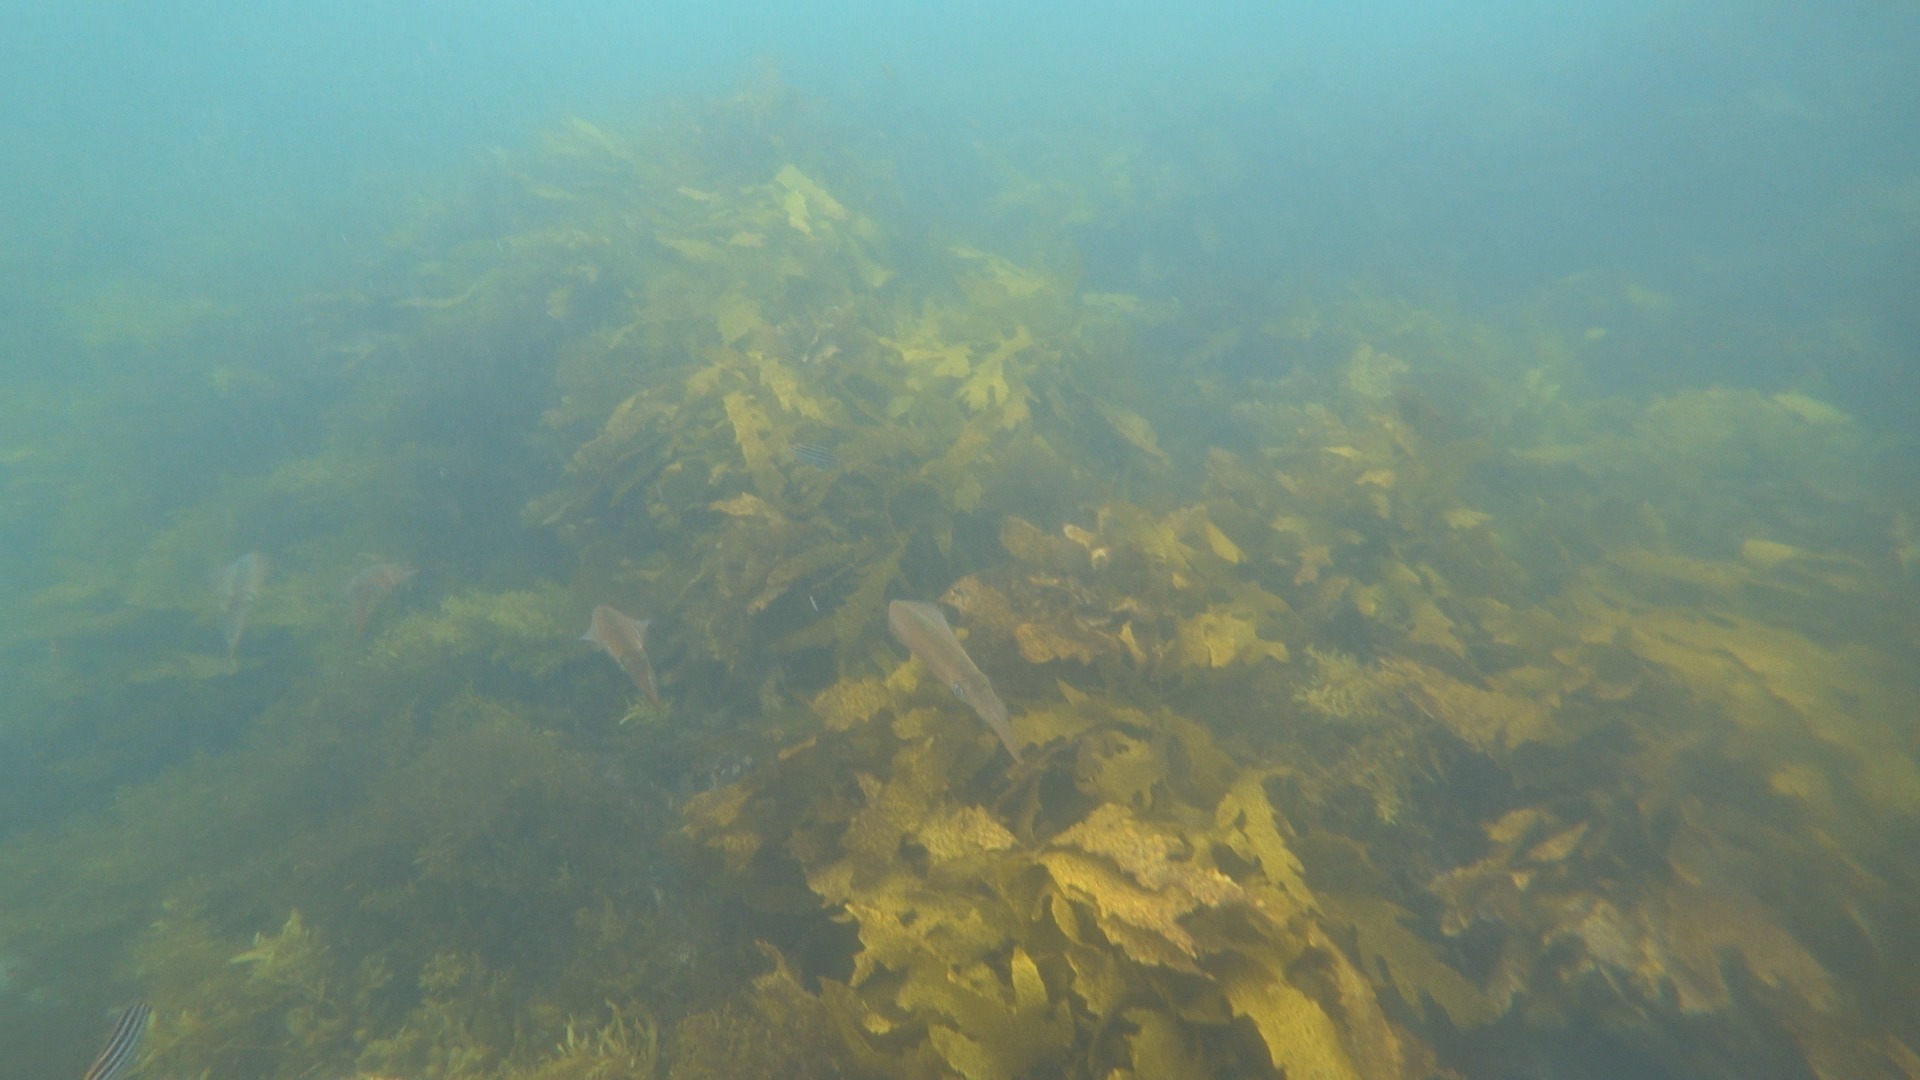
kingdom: Animalia
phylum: Mollusca
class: Cephalopoda
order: Myopsida
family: Loliginidae
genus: Sepioteuthis
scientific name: Sepioteuthis australis
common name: Southern reef squid
